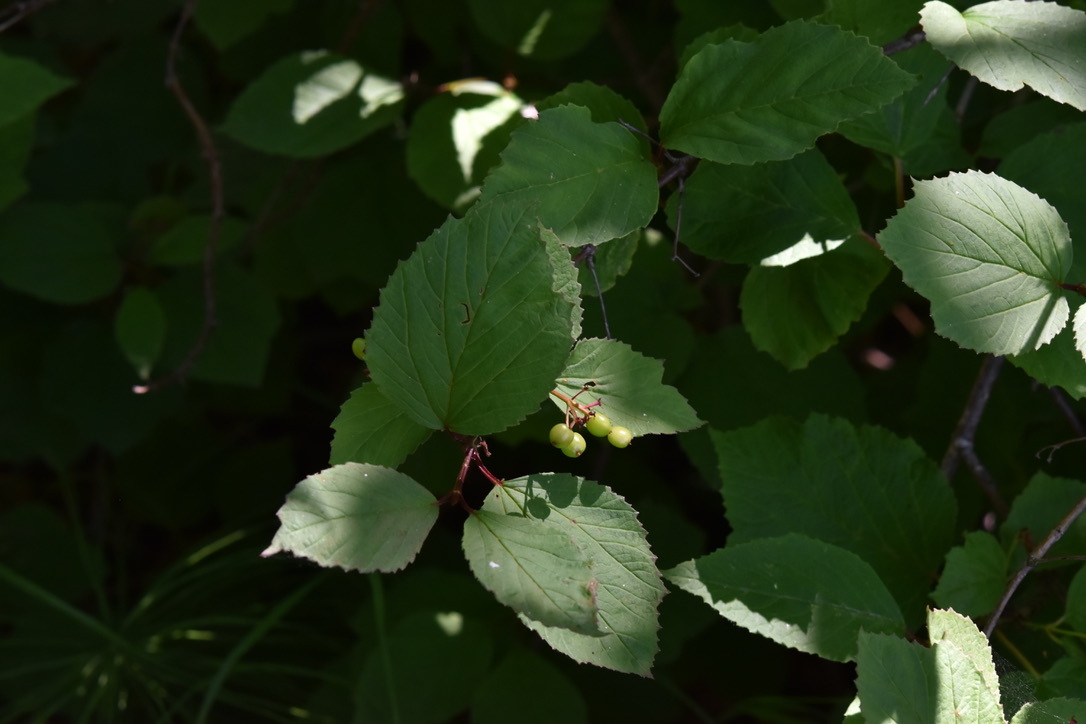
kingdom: Plantae
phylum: Tracheophyta
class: Magnoliopsida
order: Dipsacales
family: Viburnaceae
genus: Viburnum
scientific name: Viburnum edule
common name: Mooseberry
